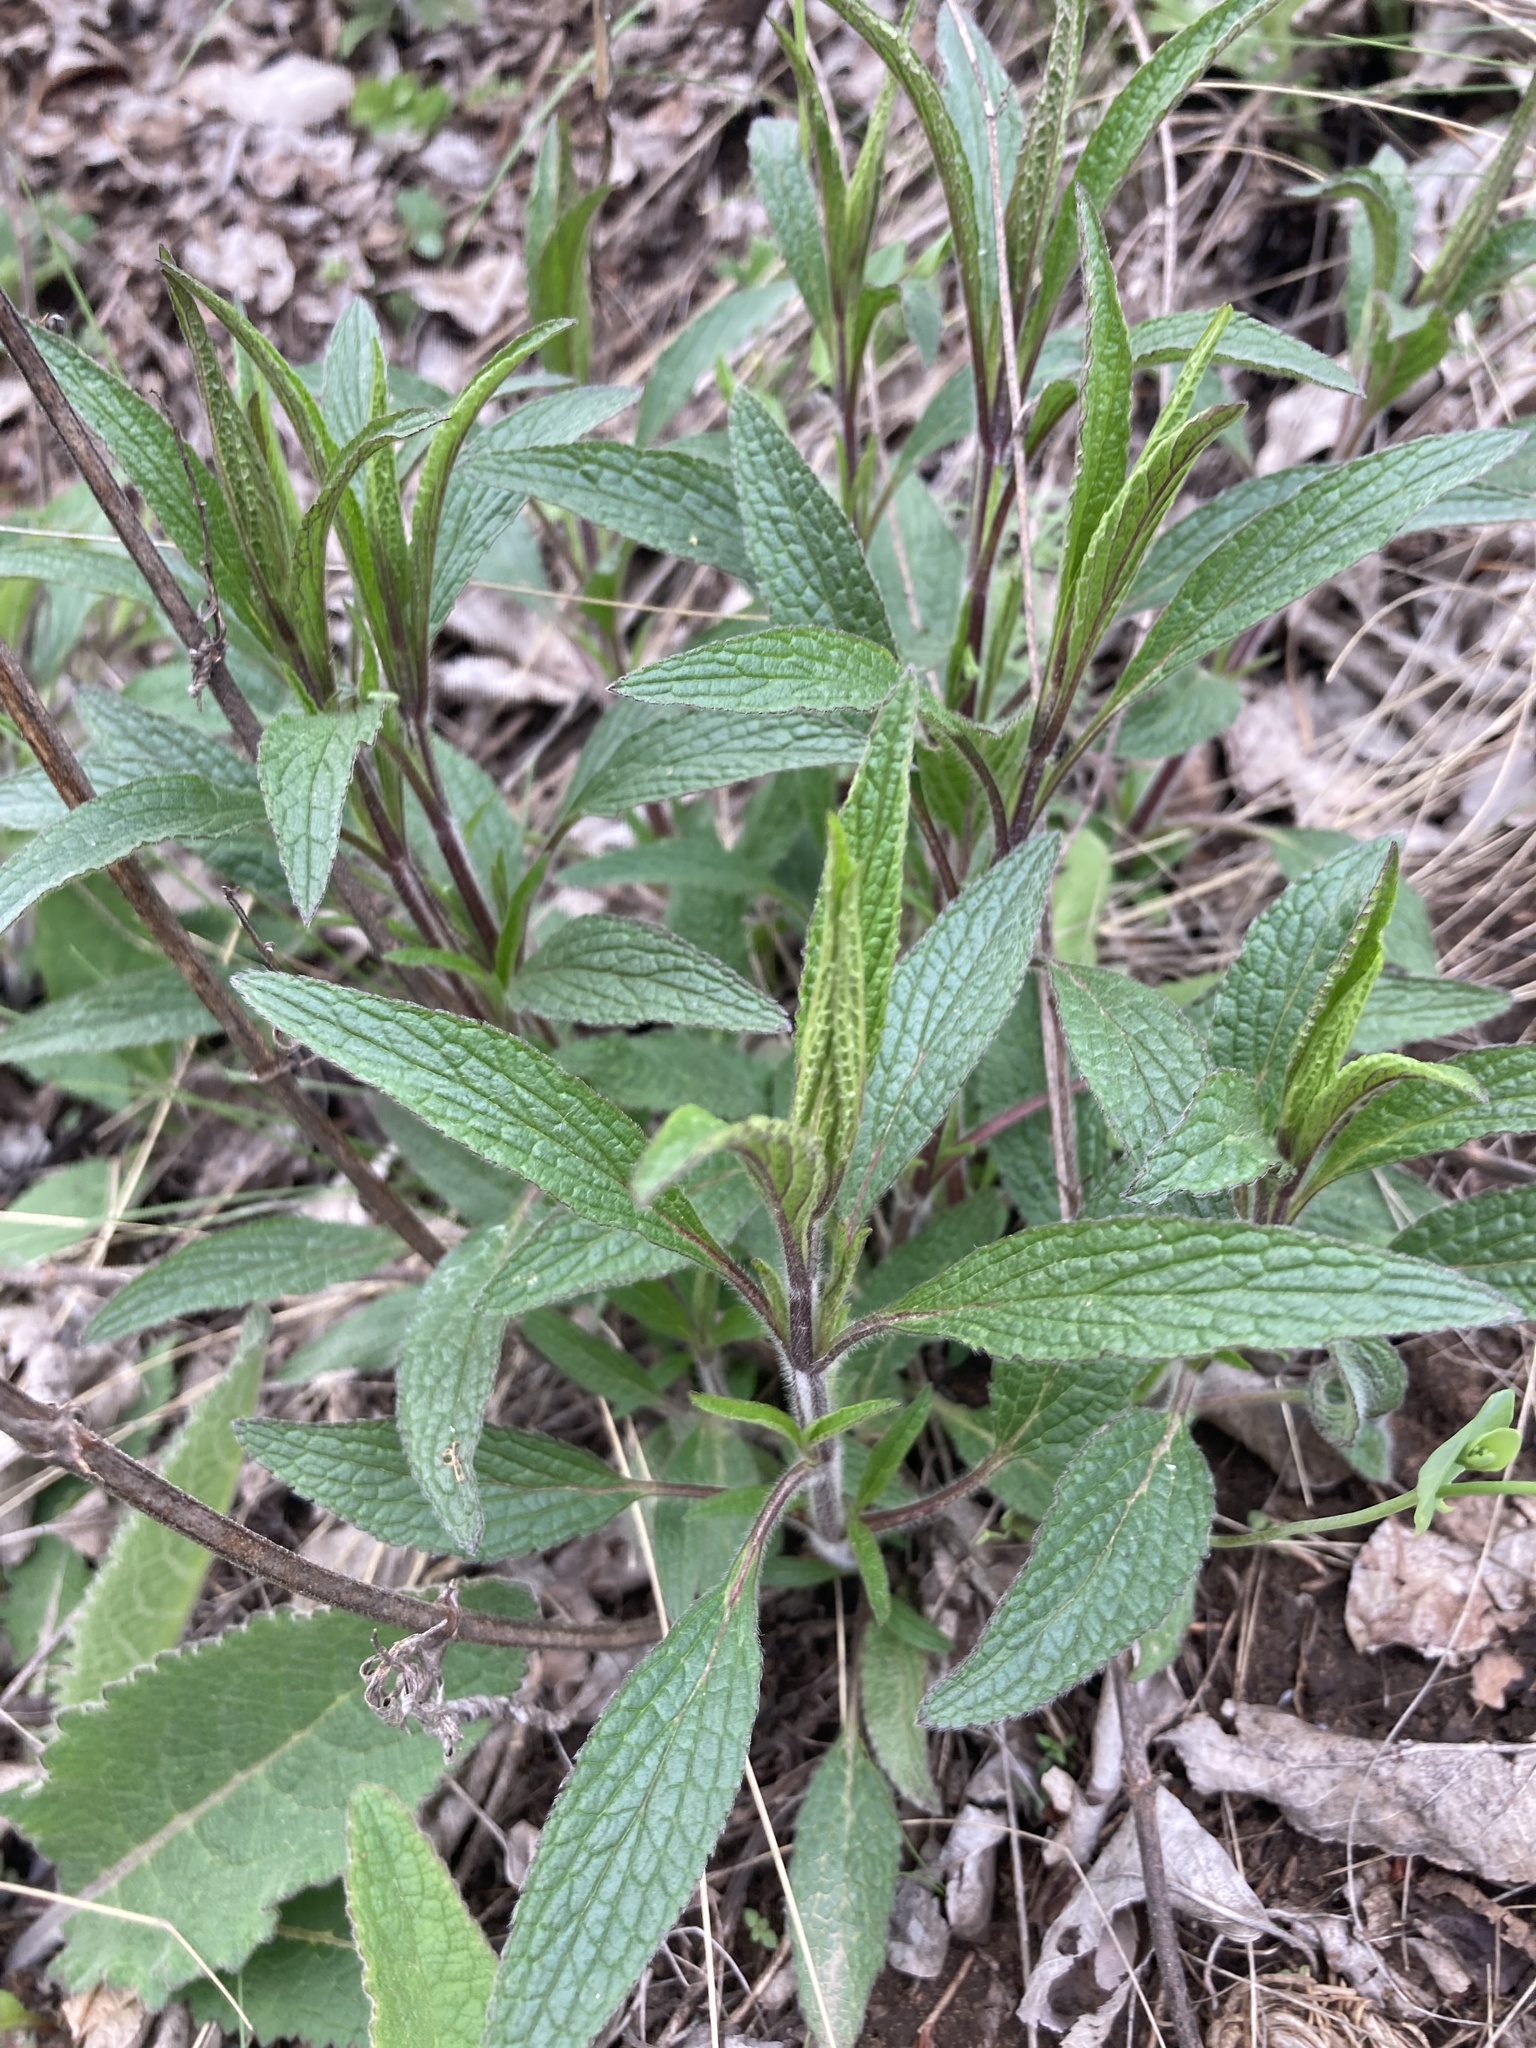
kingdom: Plantae
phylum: Tracheophyta
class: Magnoliopsida
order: Lamiales
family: Lamiaceae
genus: Stachys
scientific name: Stachys recta
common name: Perennial yellow-woundwort
